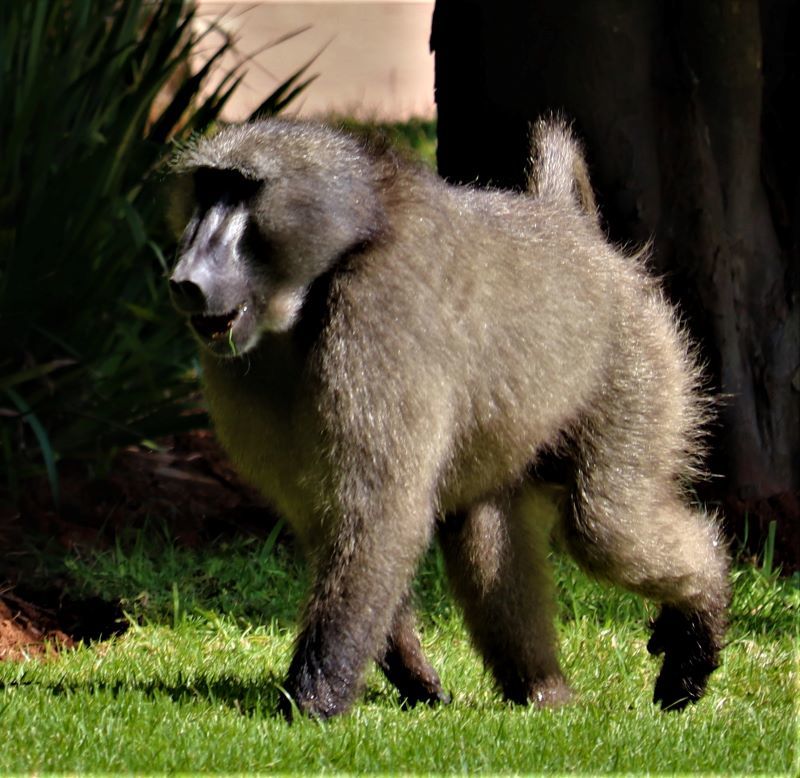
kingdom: Animalia
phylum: Chordata
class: Mammalia
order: Primates
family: Cercopithecidae
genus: Papio
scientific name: Papio ursinus
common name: Chacma baboon
